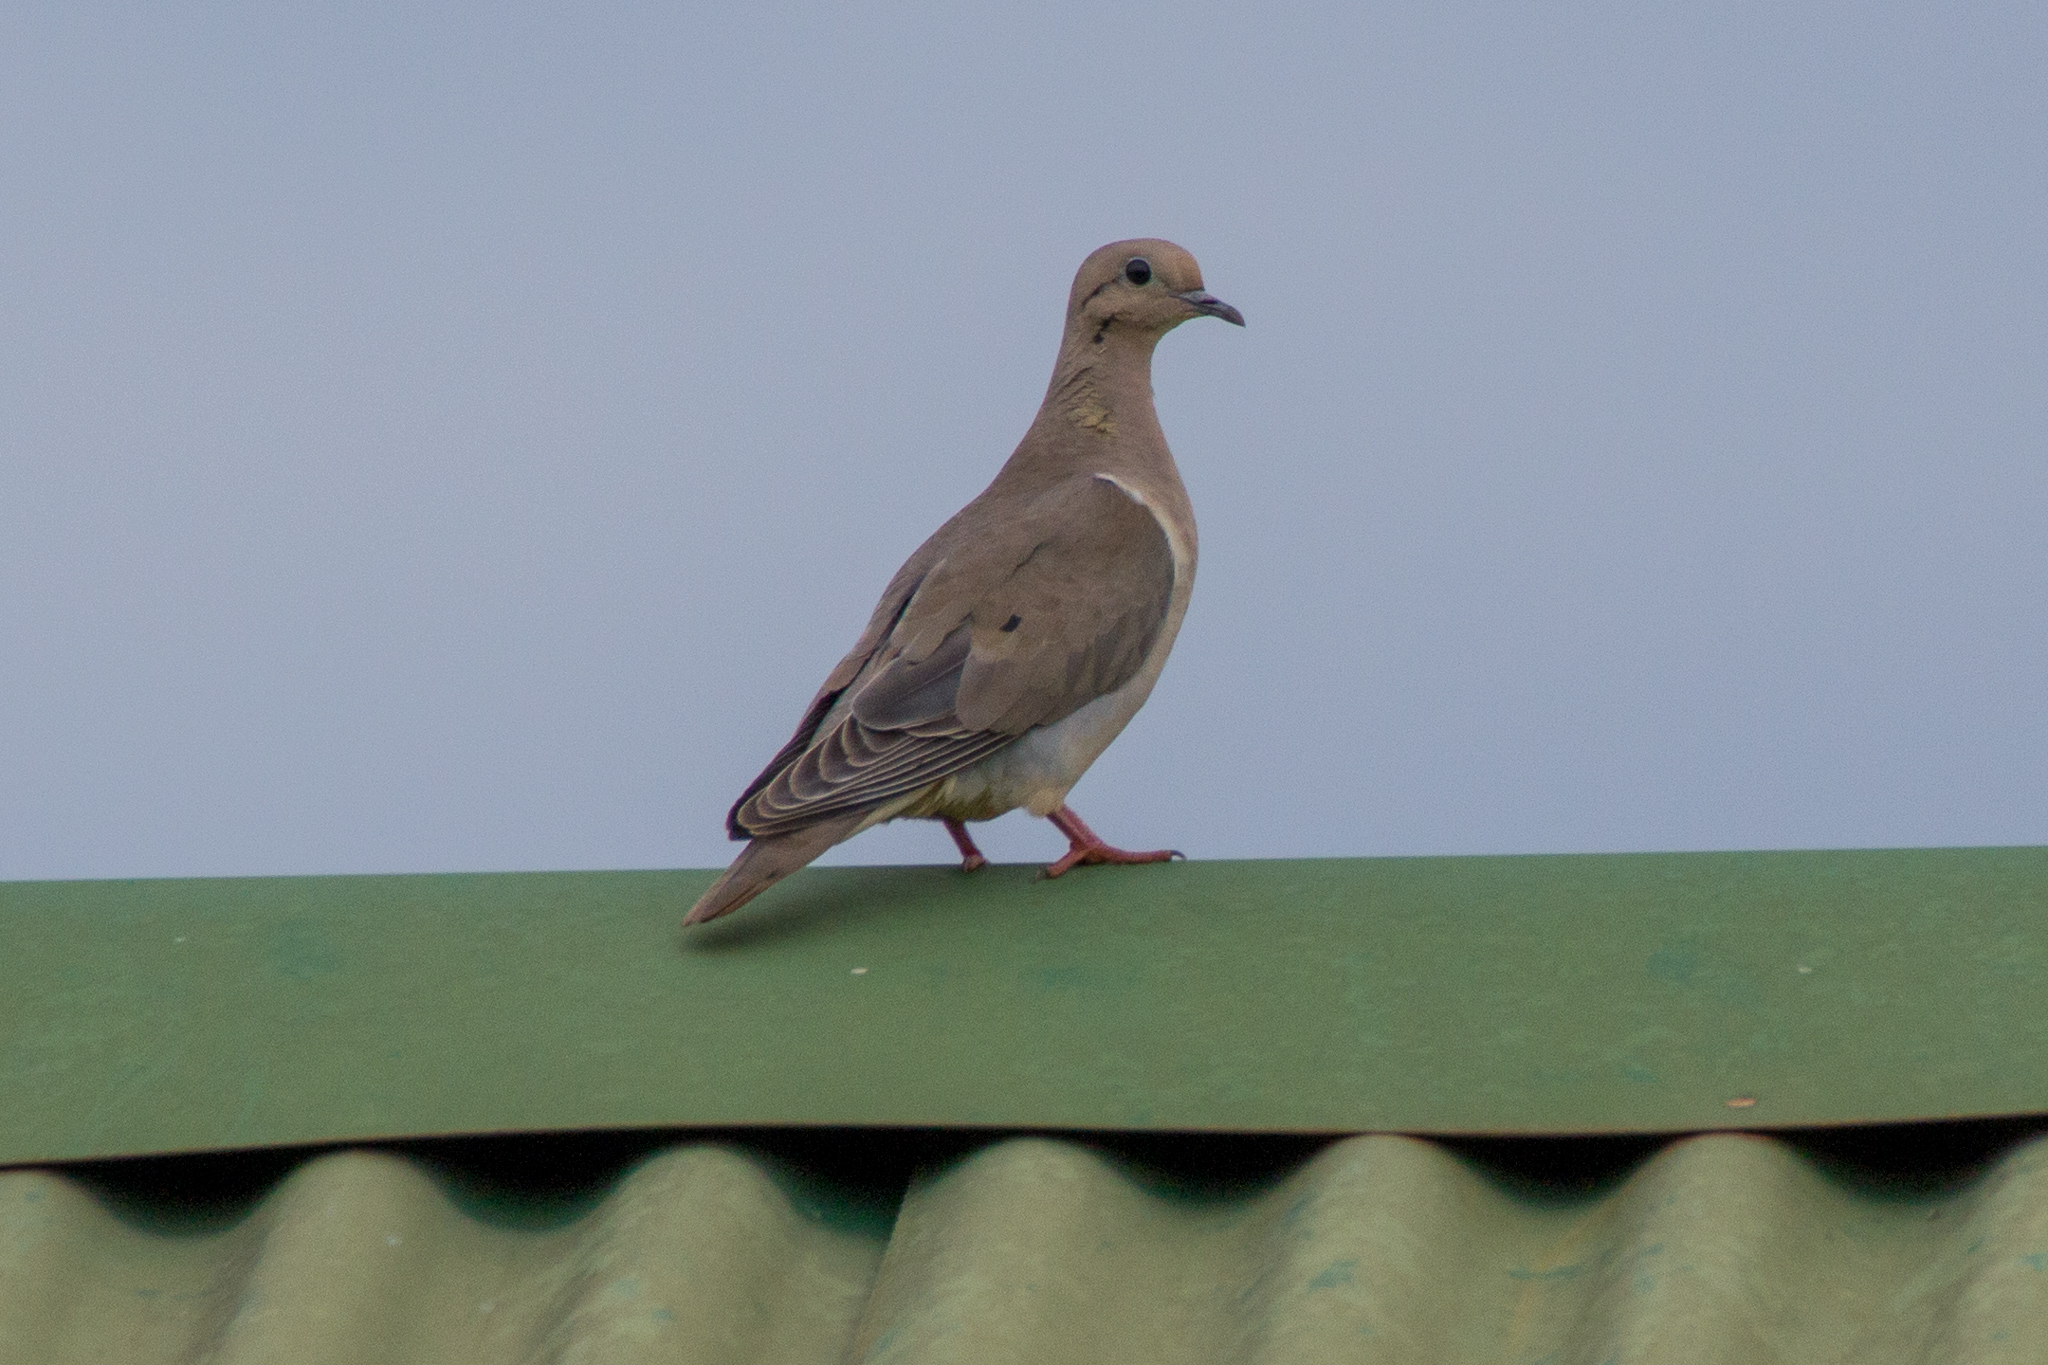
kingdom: Animalia
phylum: Chordata
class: Aves
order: Columbiformes
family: Columbidae
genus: Zenaida
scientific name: Zenaida auriculata
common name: Eared dove
